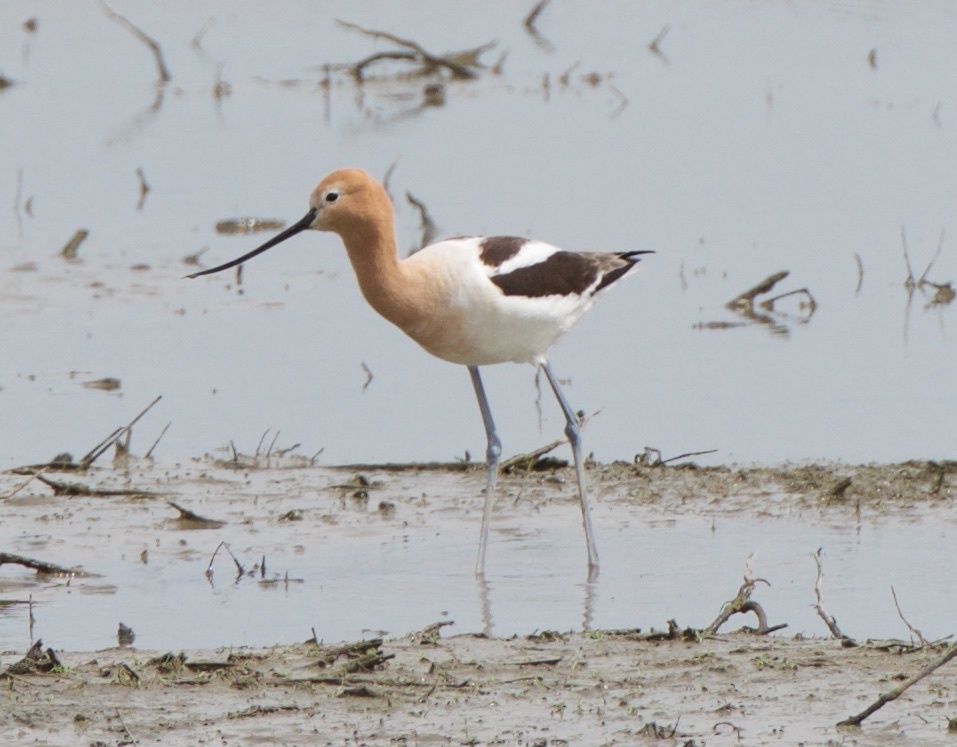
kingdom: Animalia
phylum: Chordata
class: Aves
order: Charadriiformes
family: Recurvirostridae
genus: Recurvirostra
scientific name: Recurvirostra americana
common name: American avocet
